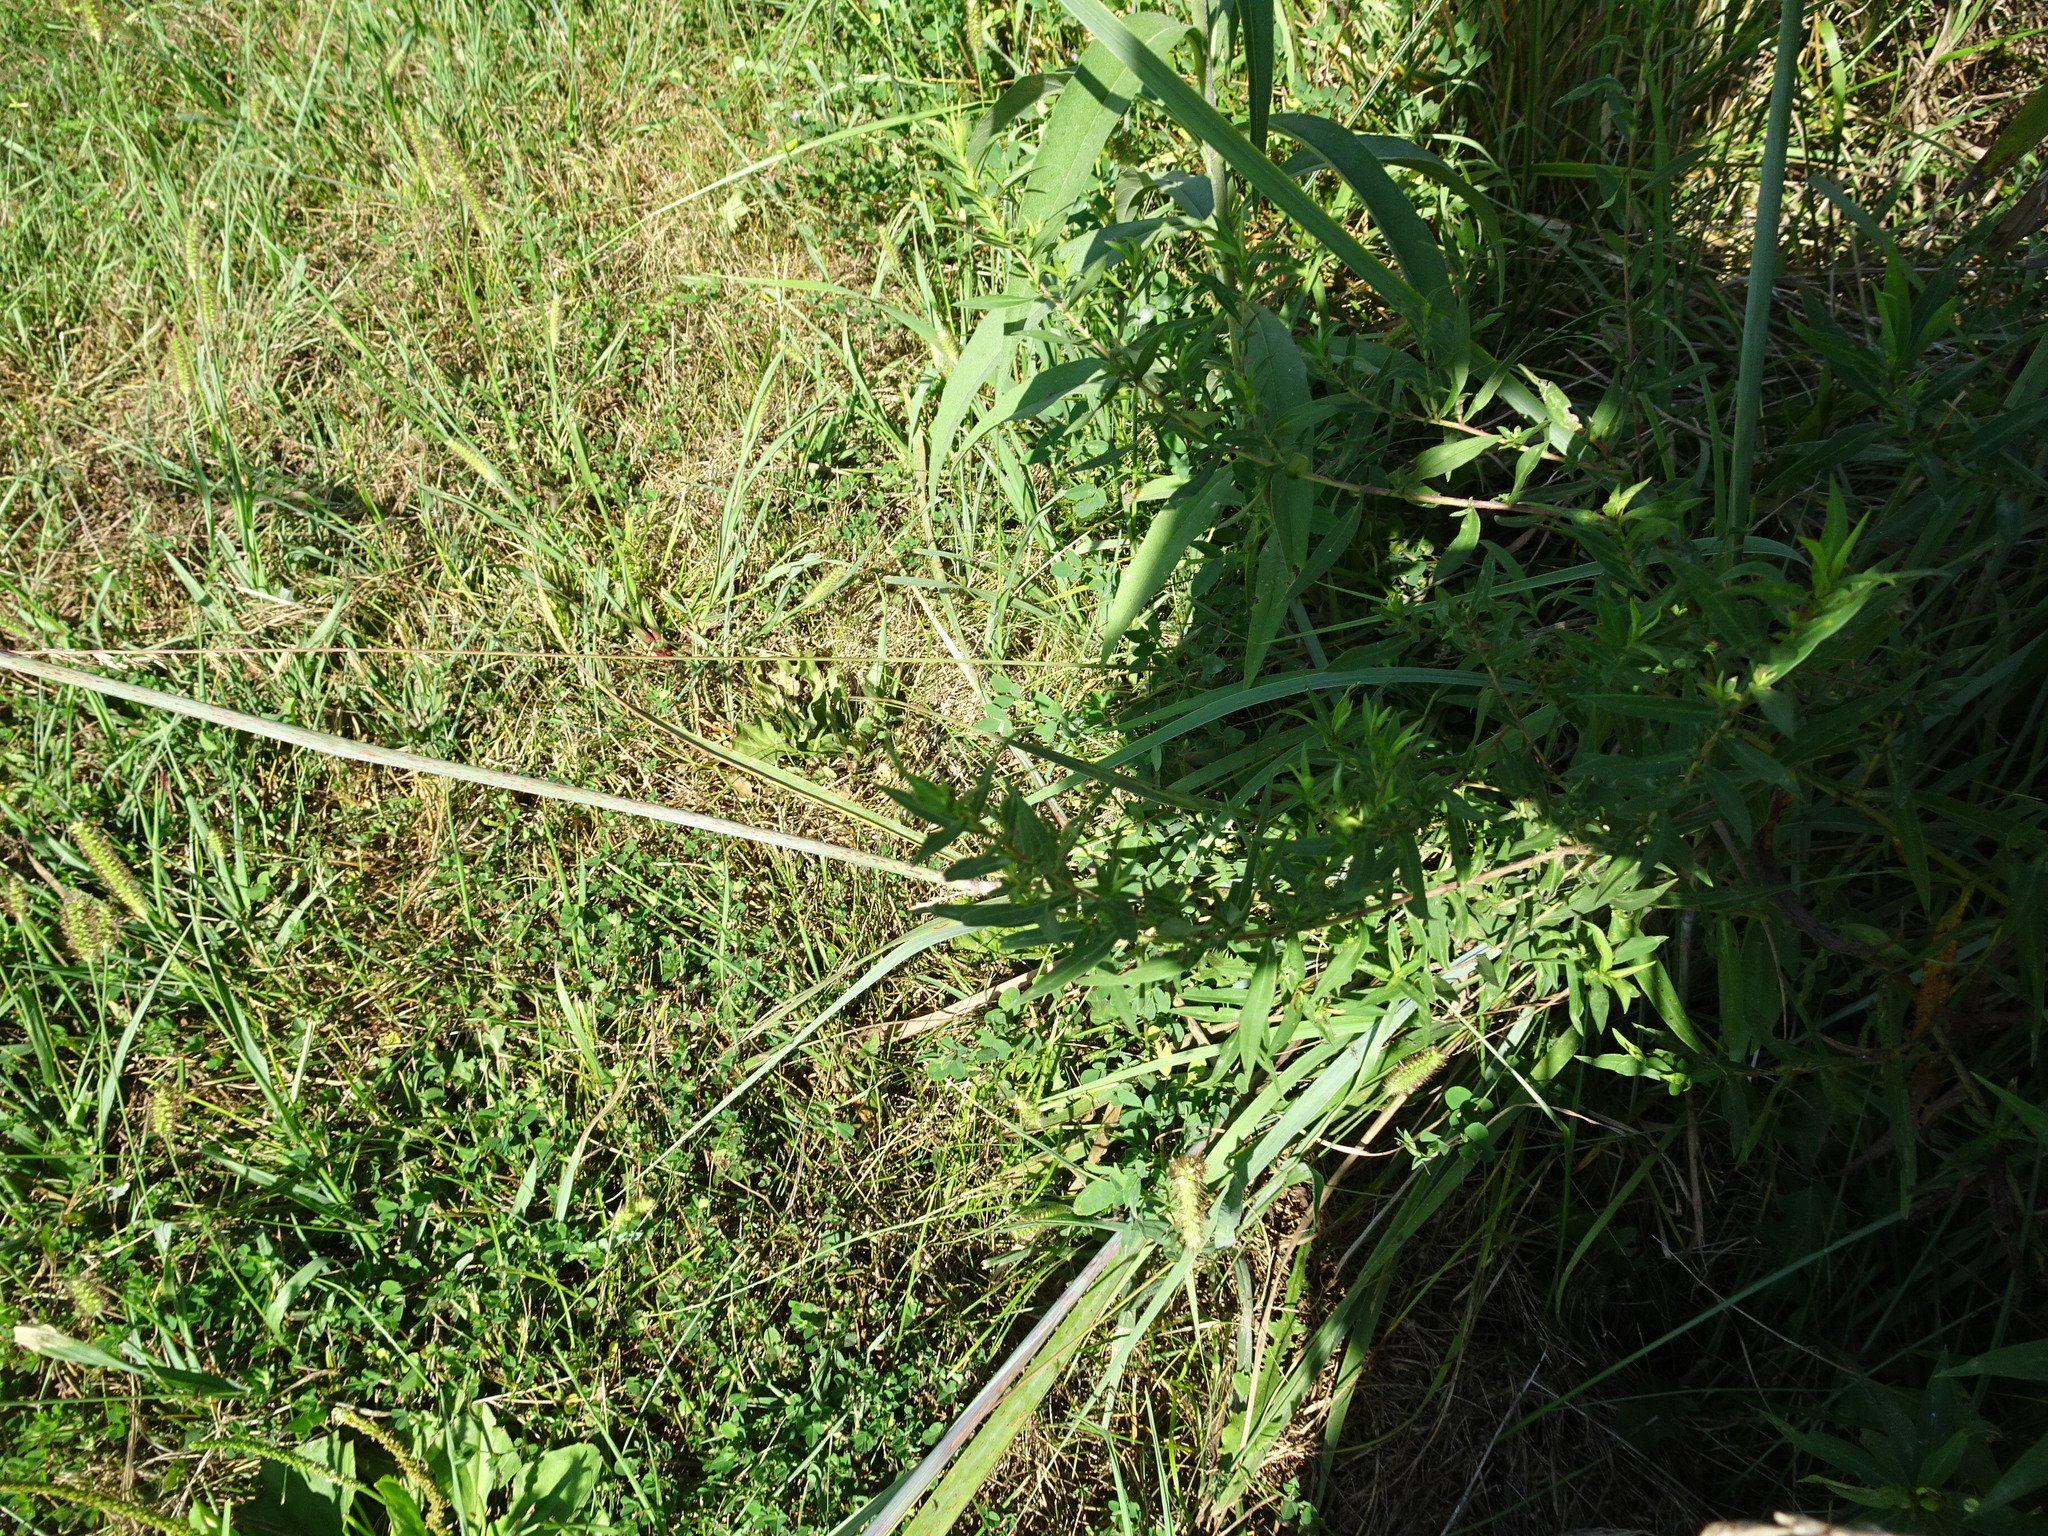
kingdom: Plantae
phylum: Tracheophyta
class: Liliopsida
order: Poales
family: Poaceae
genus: Sorghastrum
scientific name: Sorghastrum nutans
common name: Indian grass
